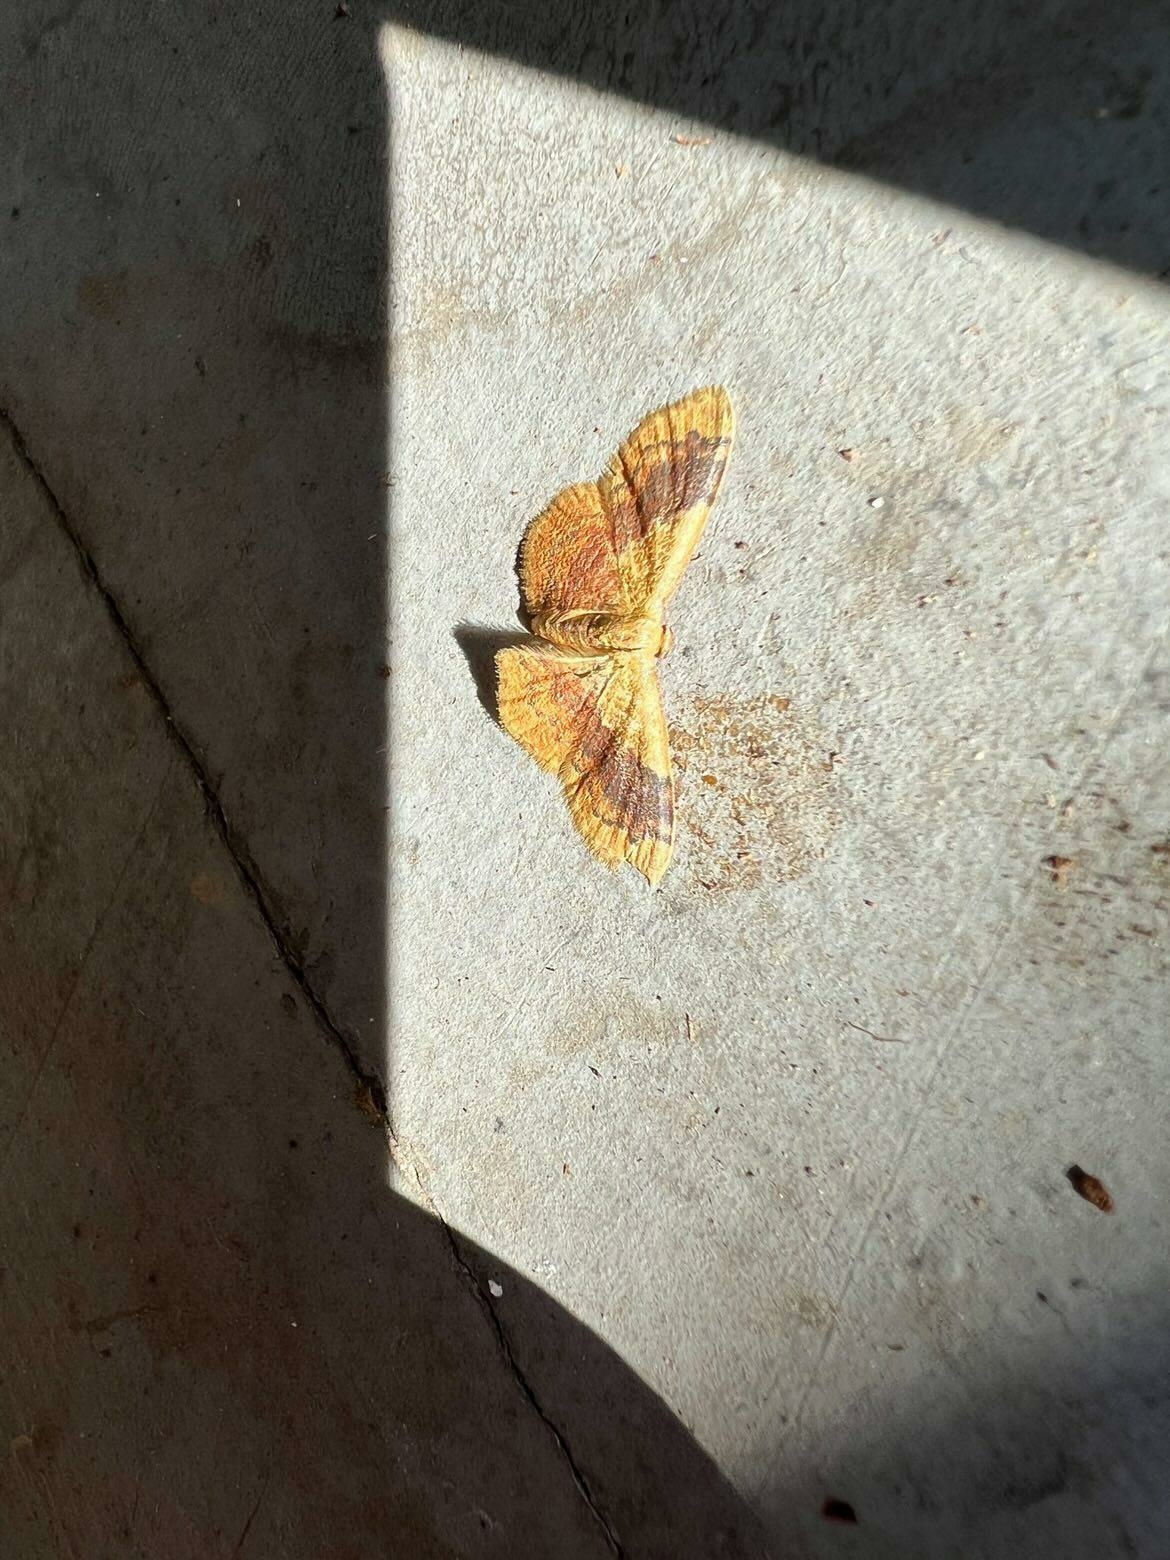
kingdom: Animalia
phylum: Arthropoda
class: Insecta
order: Lepidoptera
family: Geometridae
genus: Leptostales
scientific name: Leptostales ferruminaria
